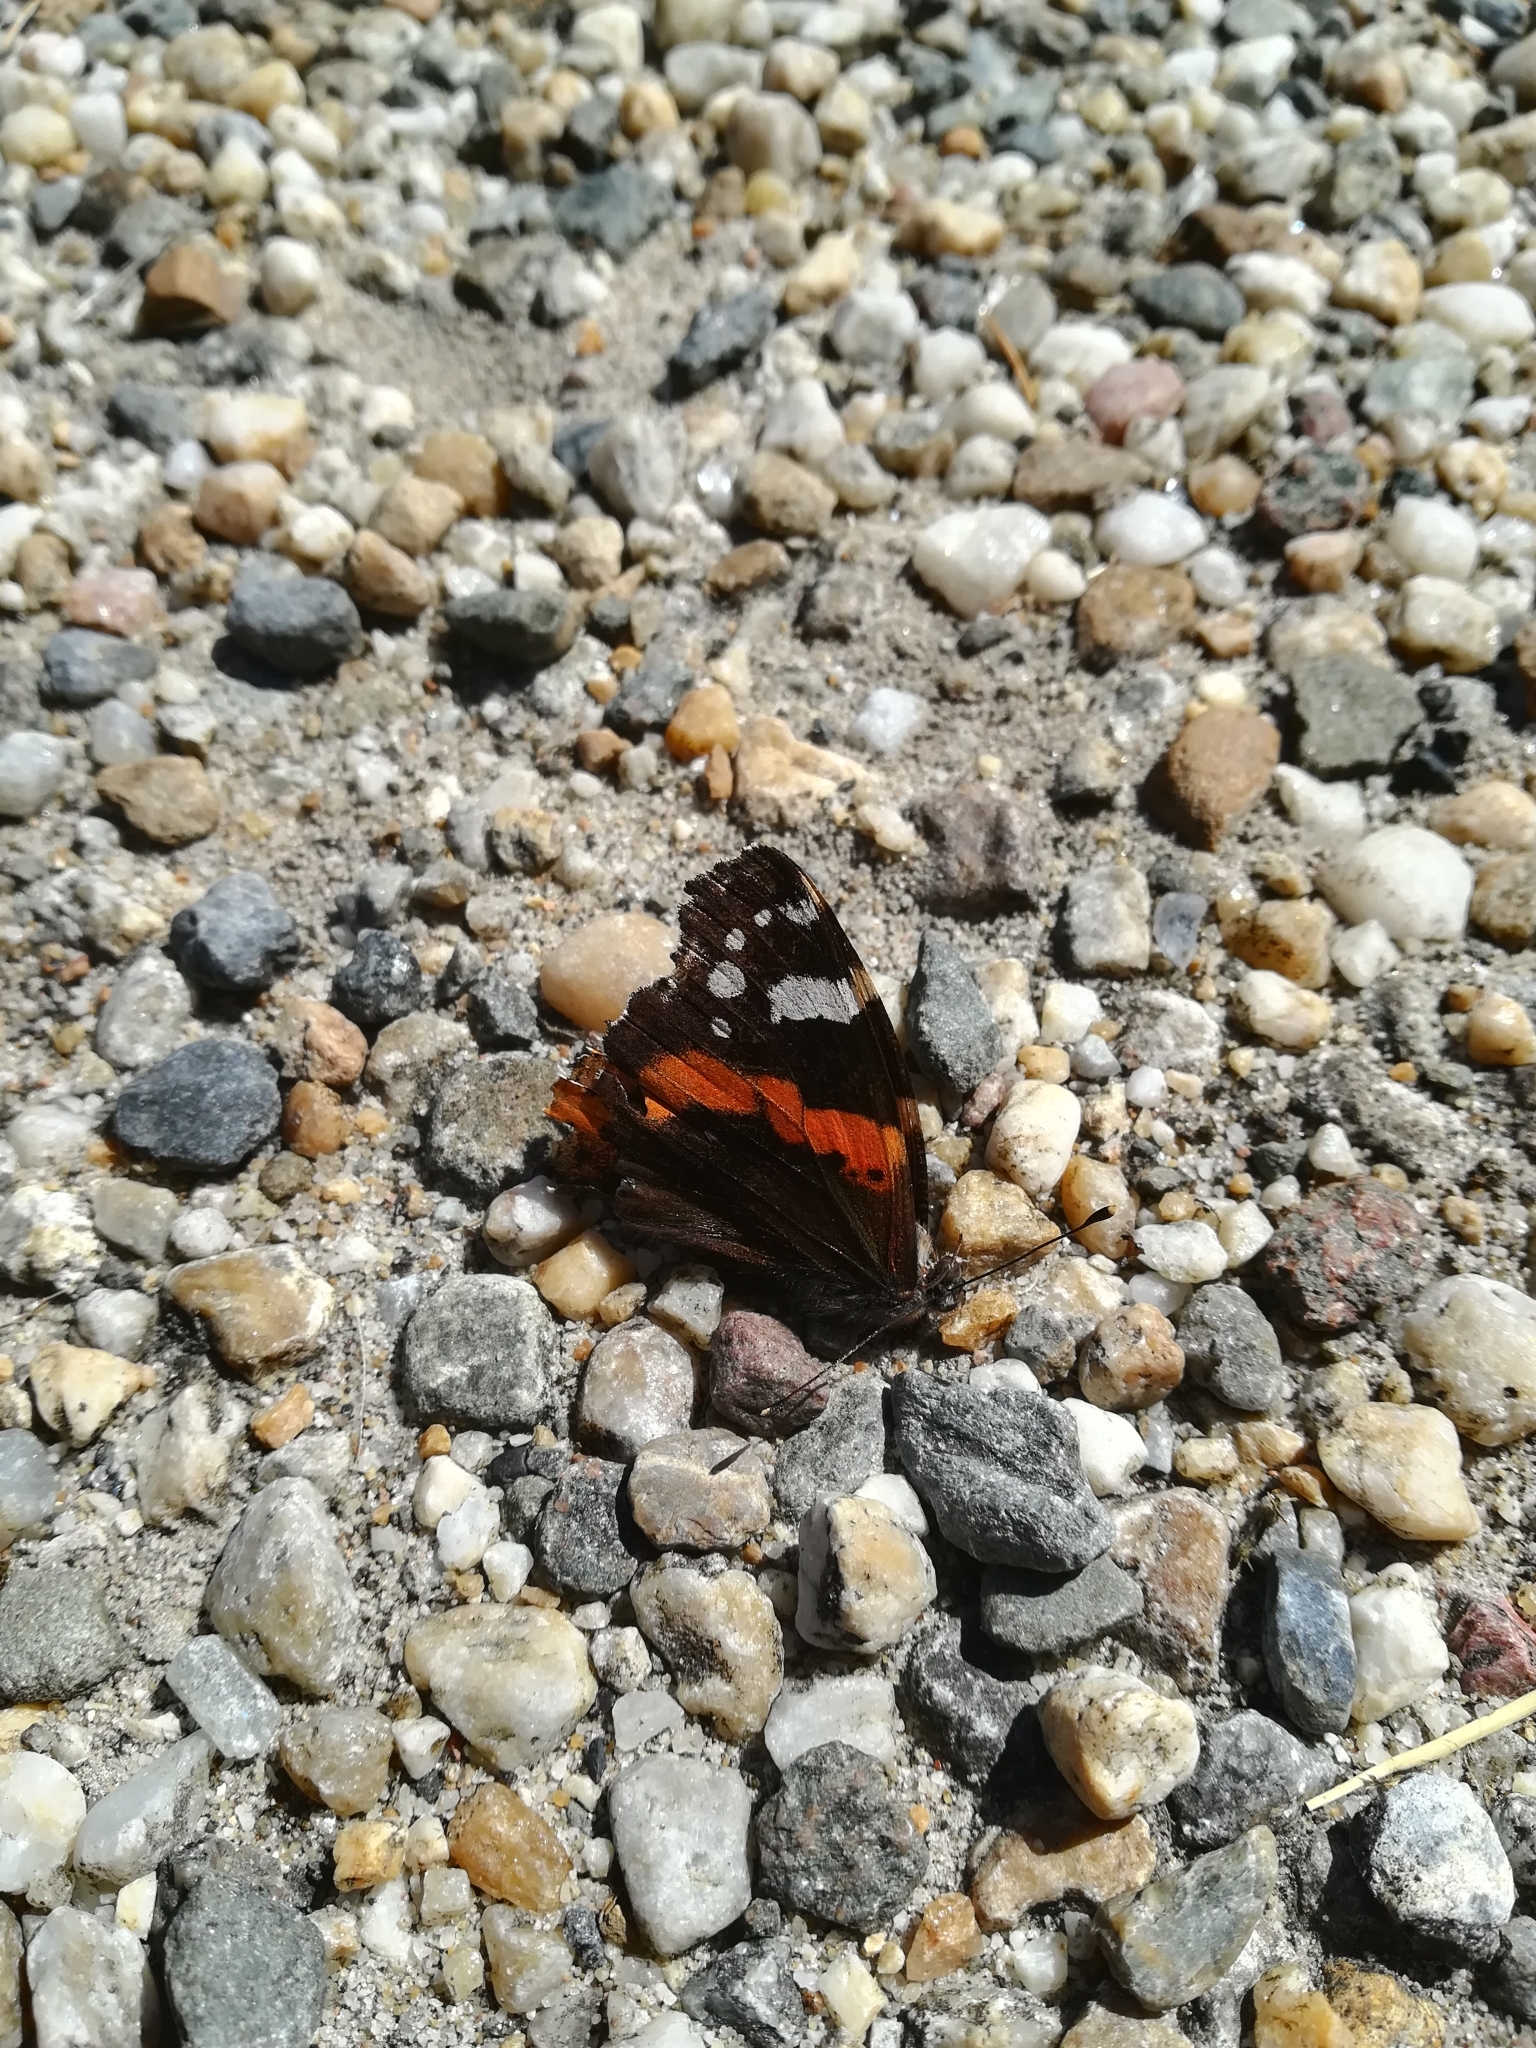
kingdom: Animalia
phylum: Arthropoda
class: Insecta
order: Lepidoptera
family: Nymphalidae
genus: Vanessa
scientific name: Vanessa atalanta
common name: Red admiral
